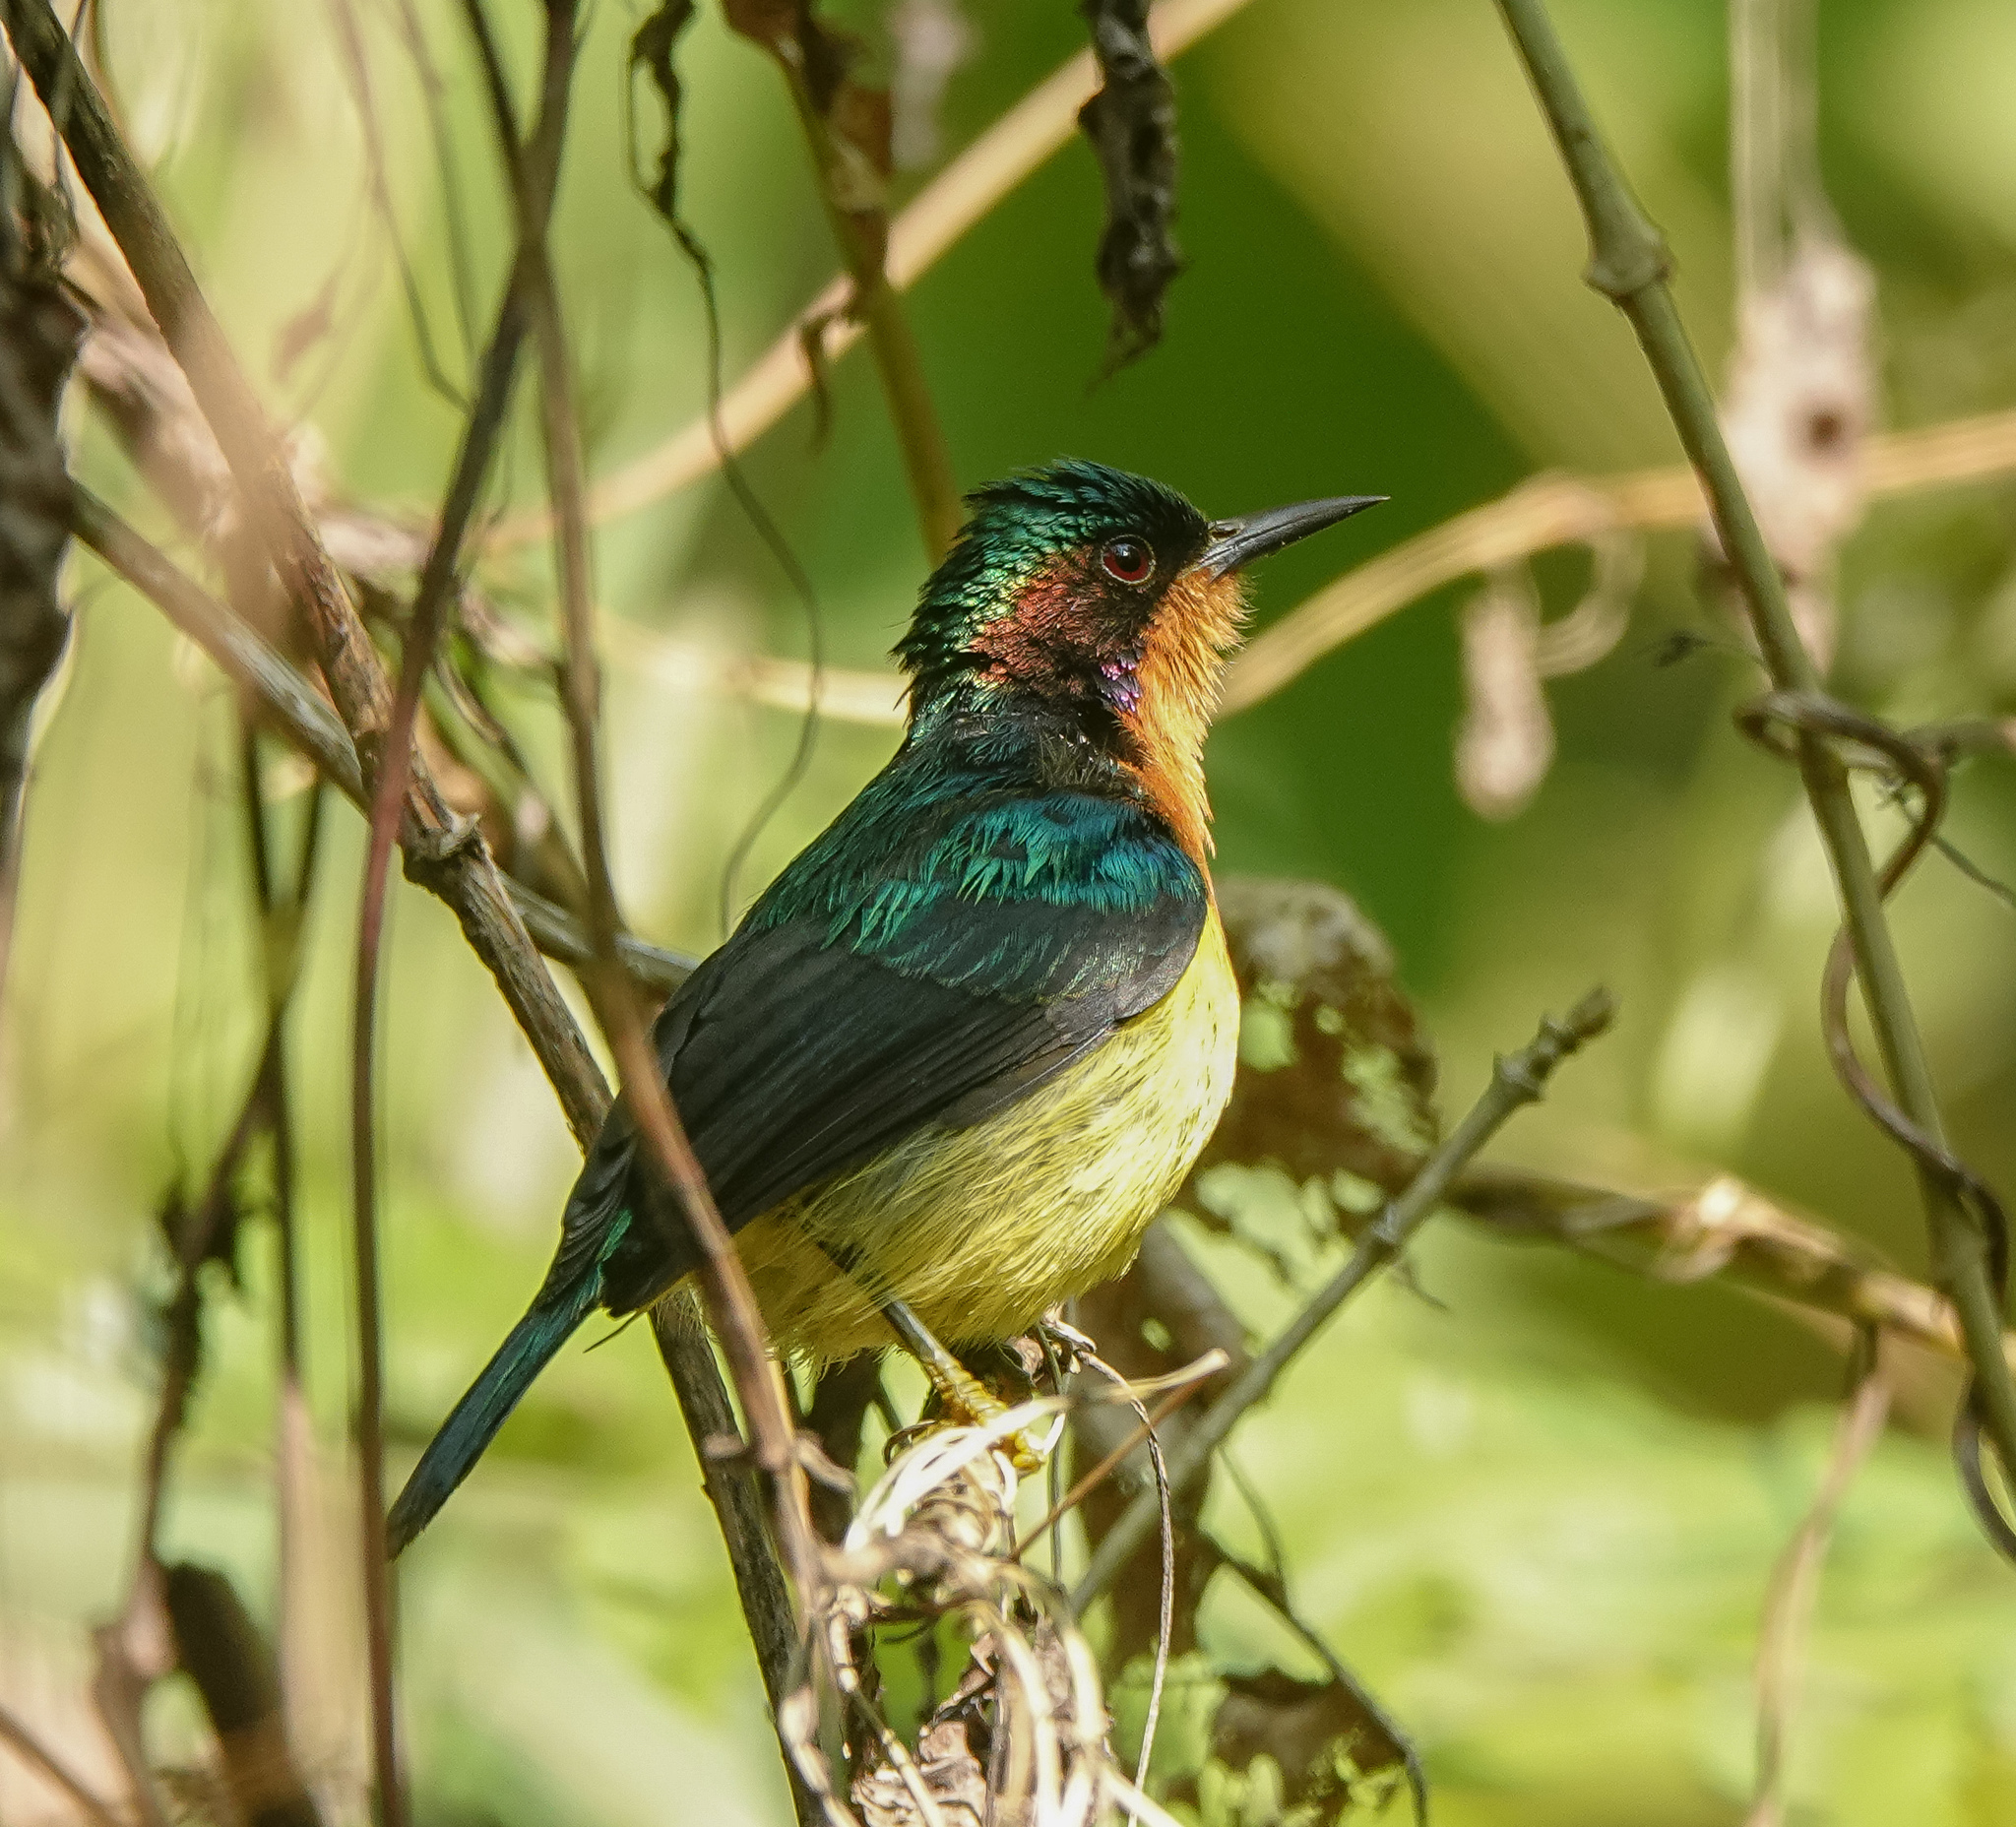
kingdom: Animalia
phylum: Chordata
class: Aves
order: Passeriformes
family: Nectariniidae
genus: Chalcoparia
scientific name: Chalcoparia singalensis
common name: Ruby-cheeked sunbird
